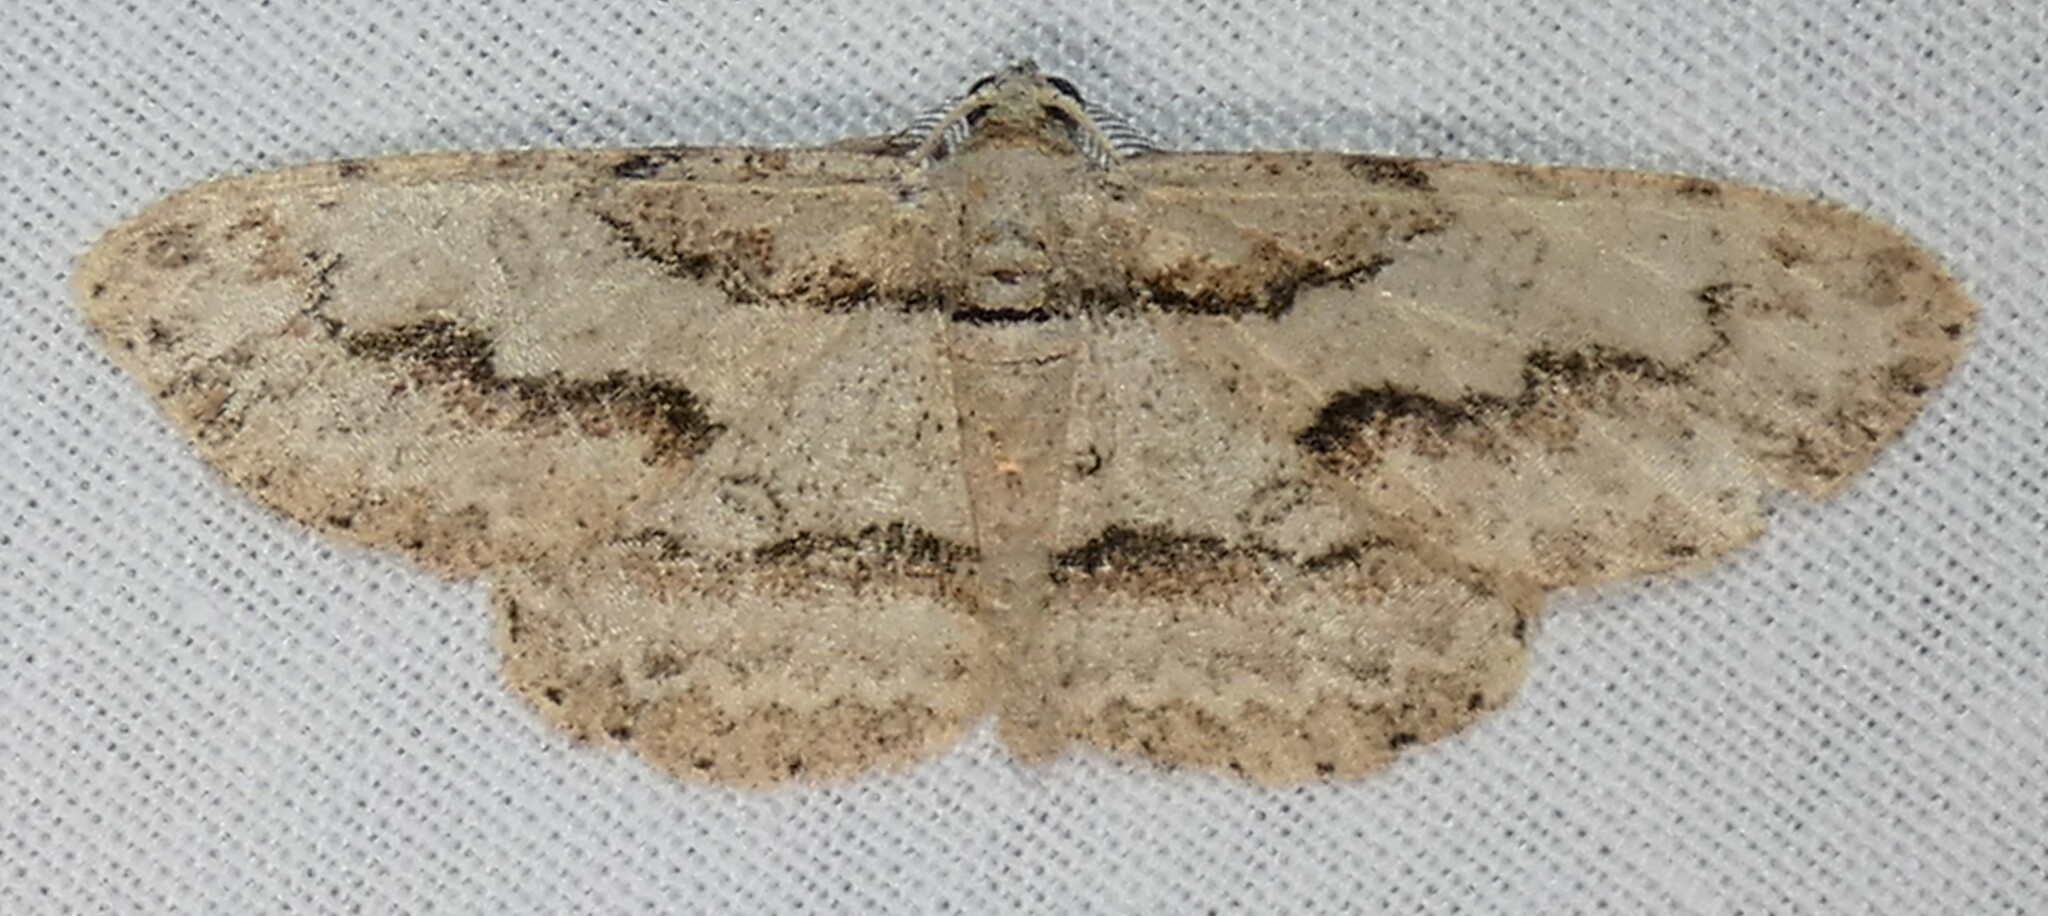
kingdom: Animalia
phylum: Arthropoda
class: Insecta
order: Lepidoptera
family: Geometridae
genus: Iridopsis
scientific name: Iridopsis pergracilis
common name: Cypress looper
